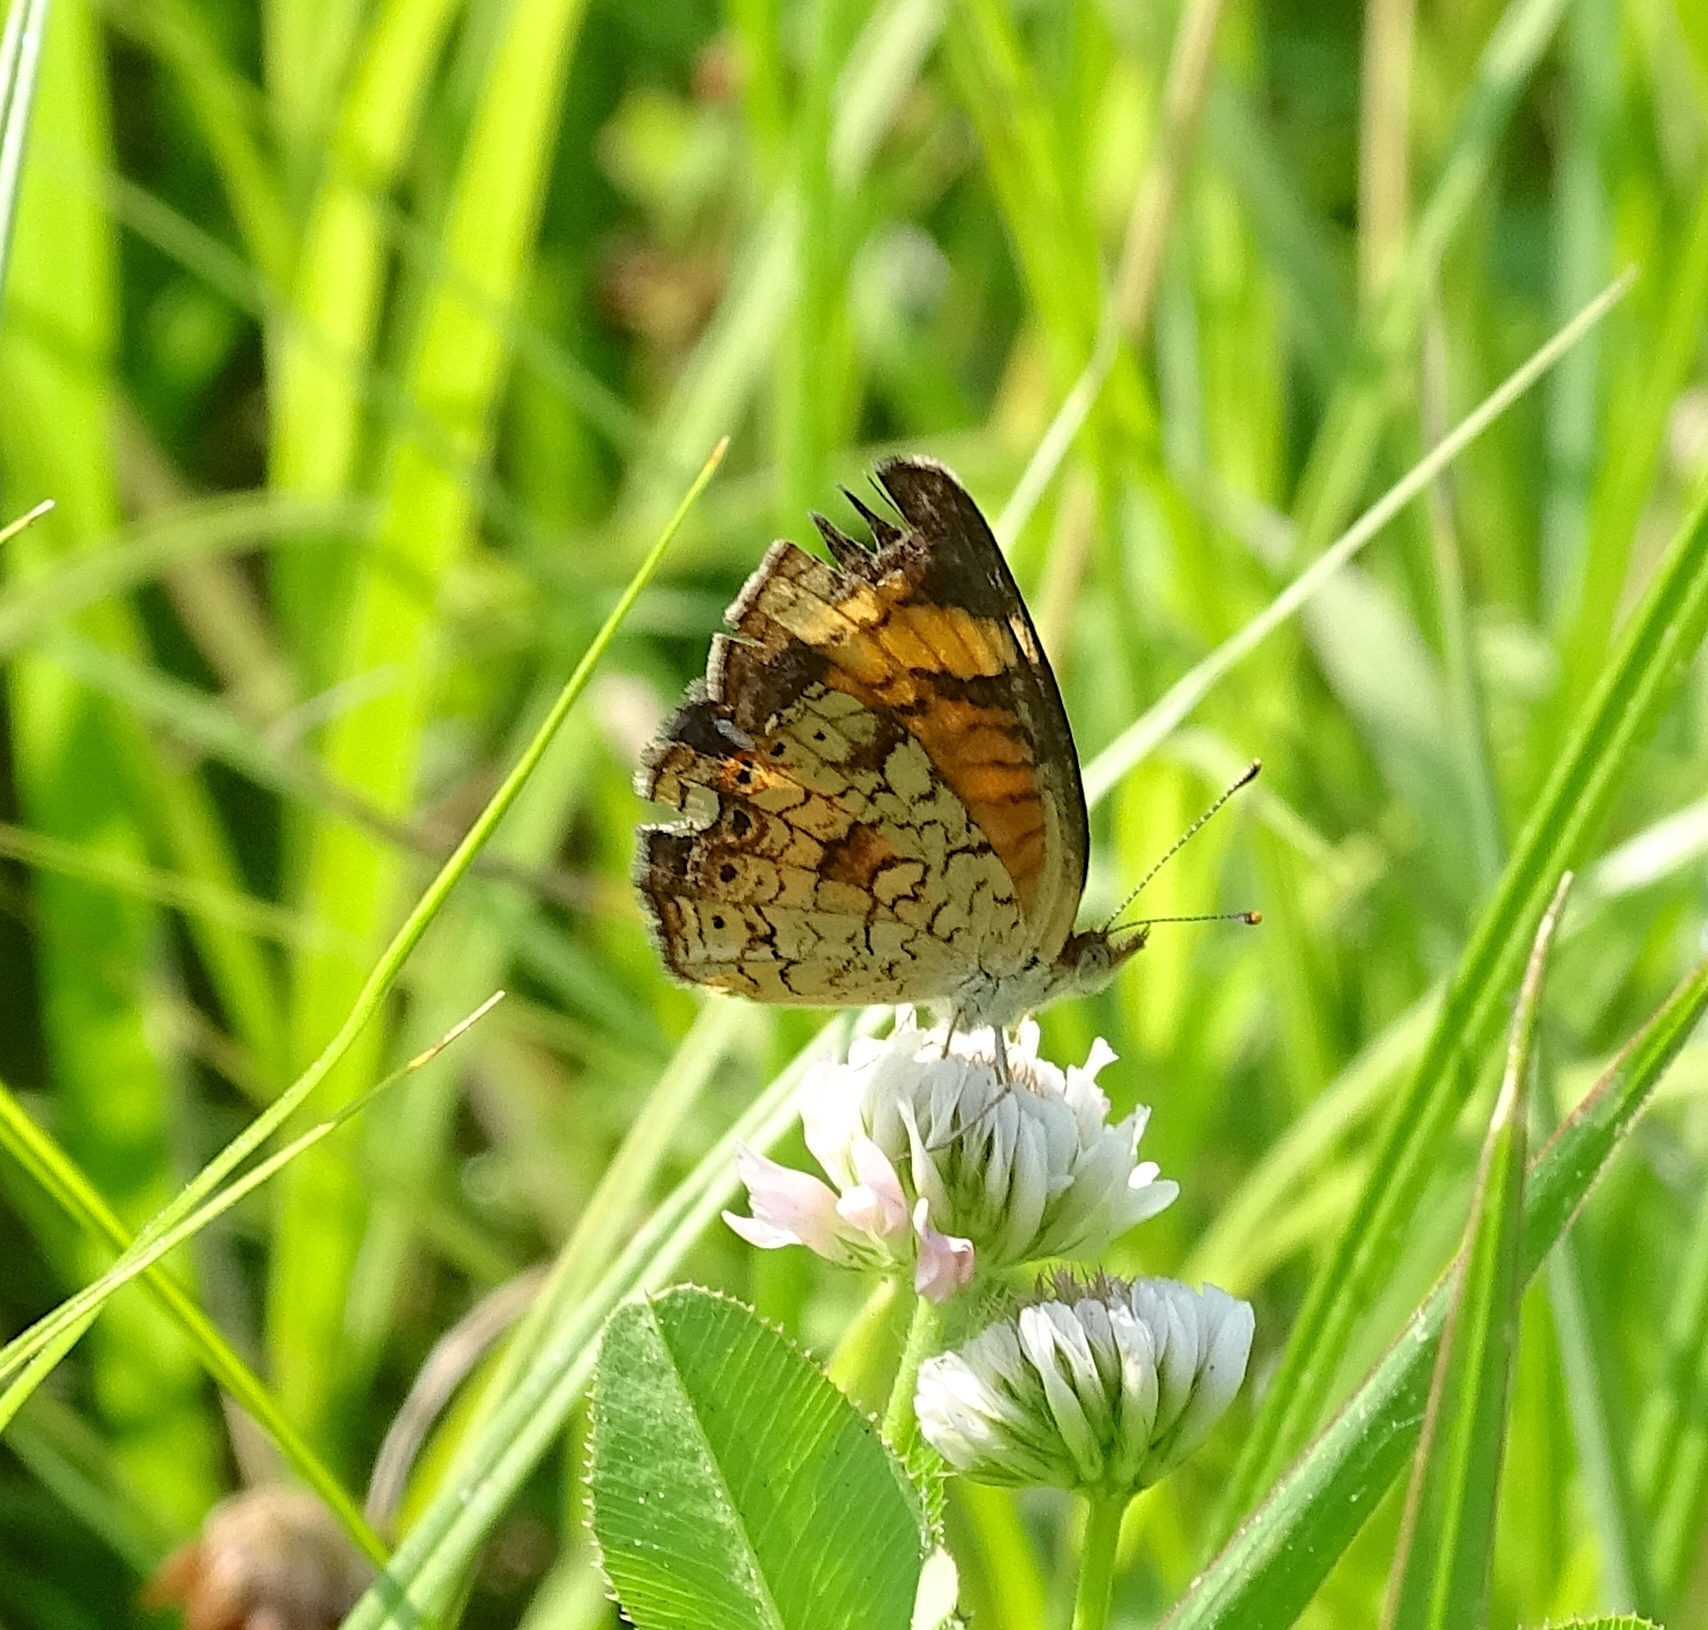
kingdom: Animalia
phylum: Arthropoda
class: Insecta
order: Lepidoptera
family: Nymphalidae
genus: Phyciodes
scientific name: Phyciodes tharos
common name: Pearl crescent
